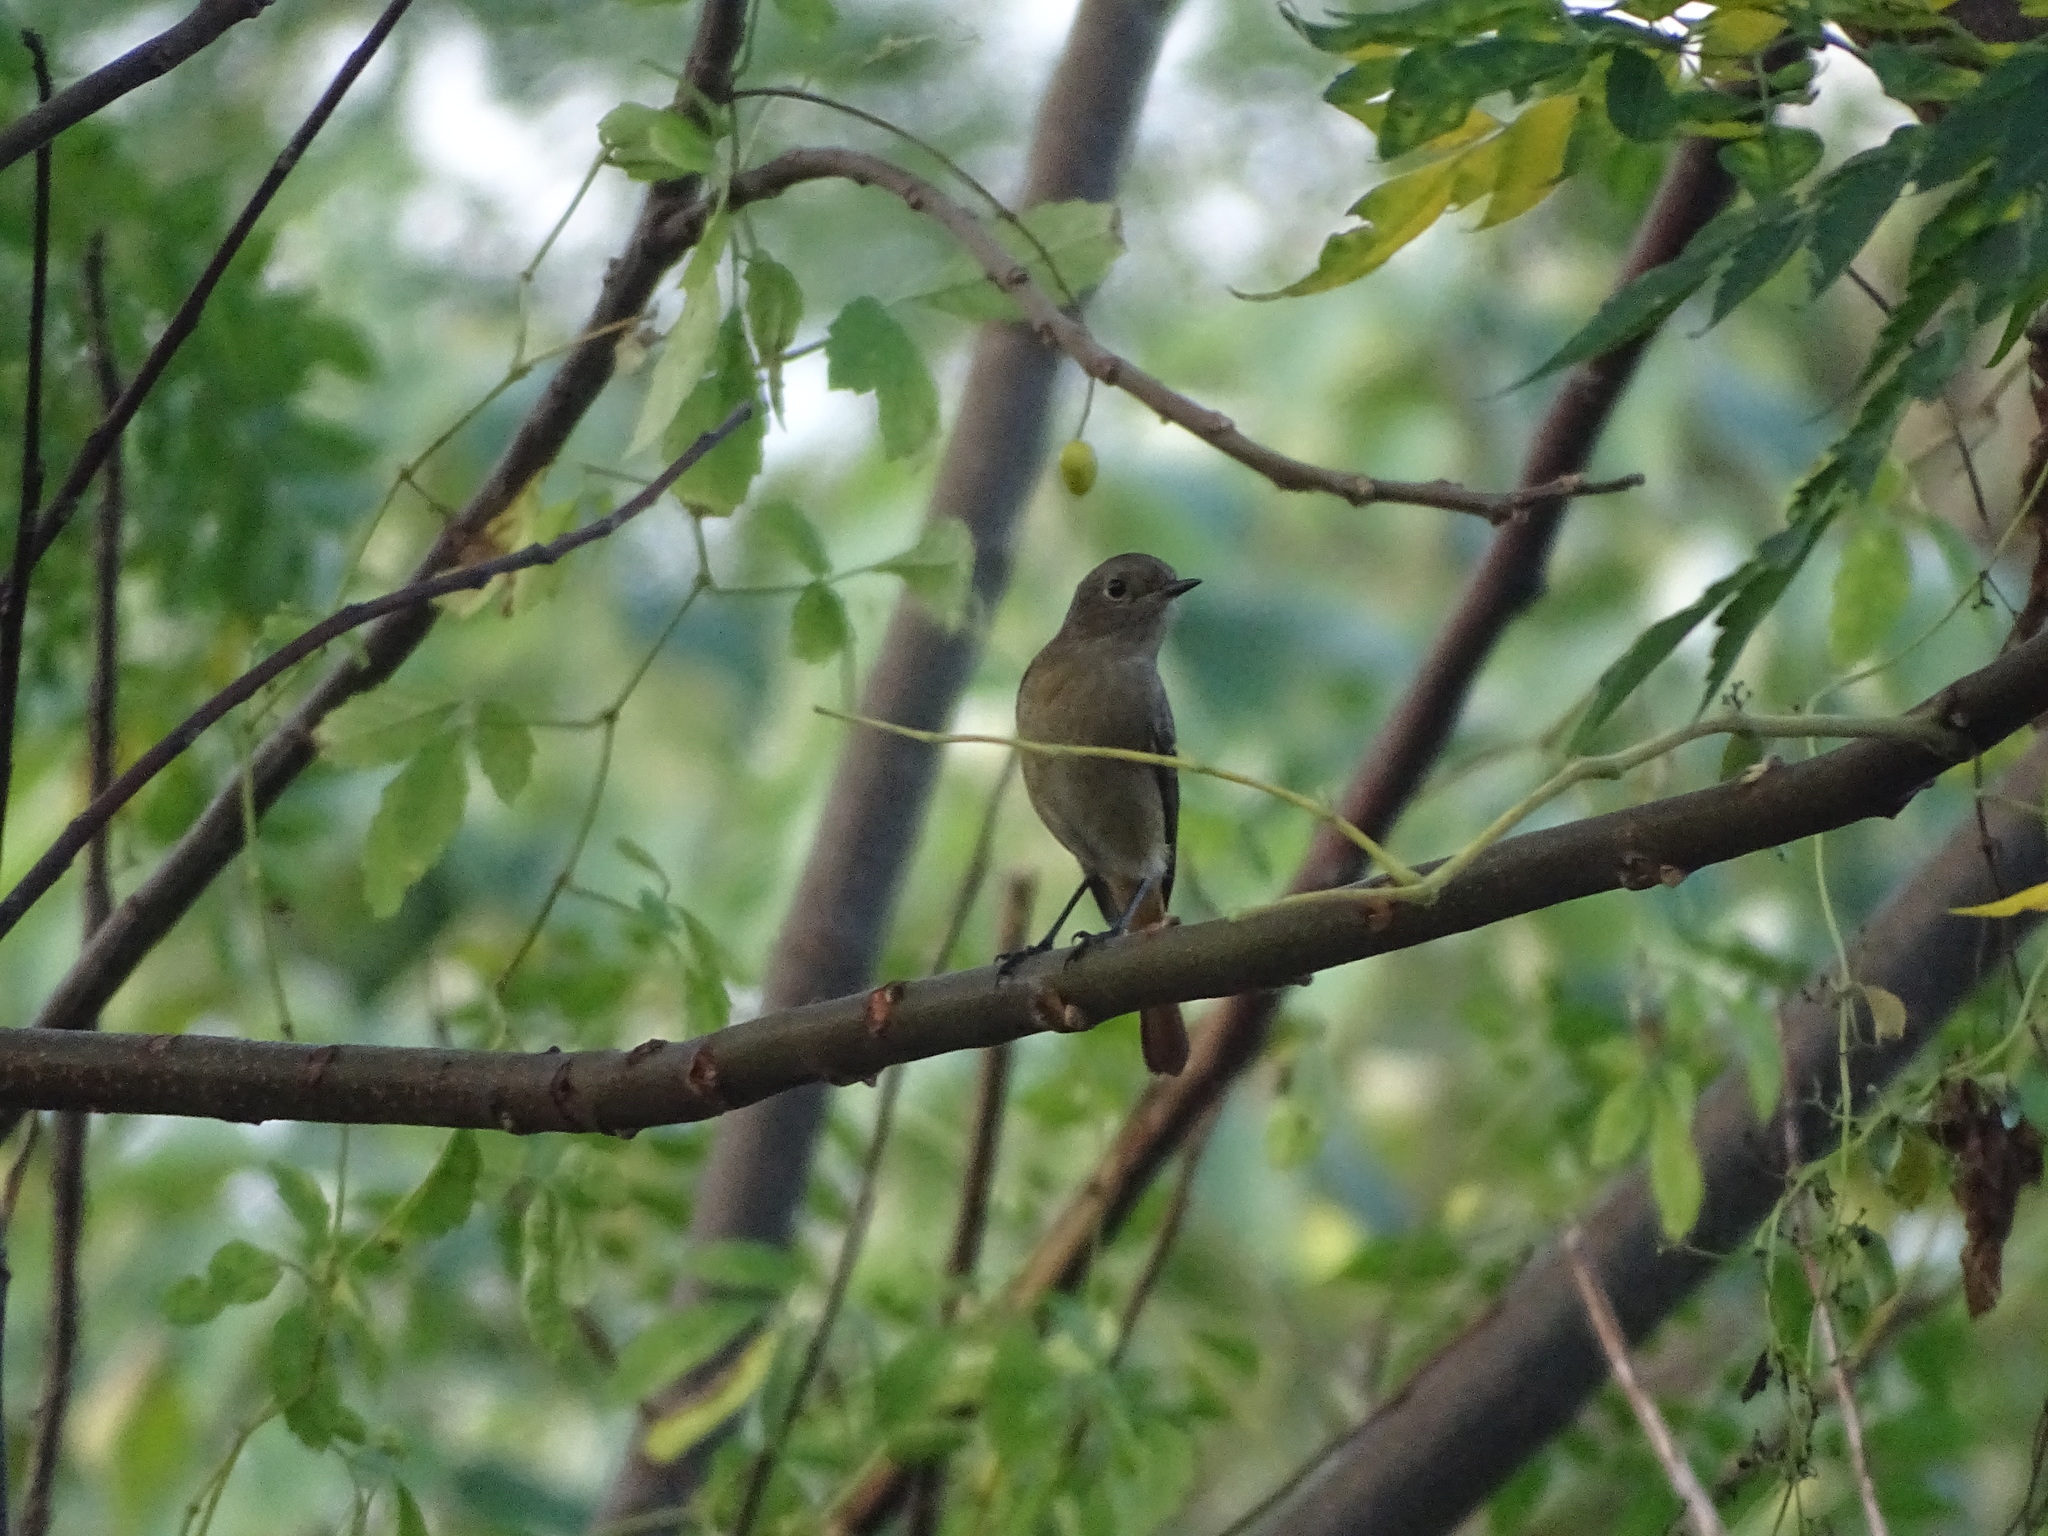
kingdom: Animalia
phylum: Chordata
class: Aves
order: Passeriformes
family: Muscicapidae
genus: Phoenicurus
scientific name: Phoenicurus auroreus
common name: Daurian redstart
